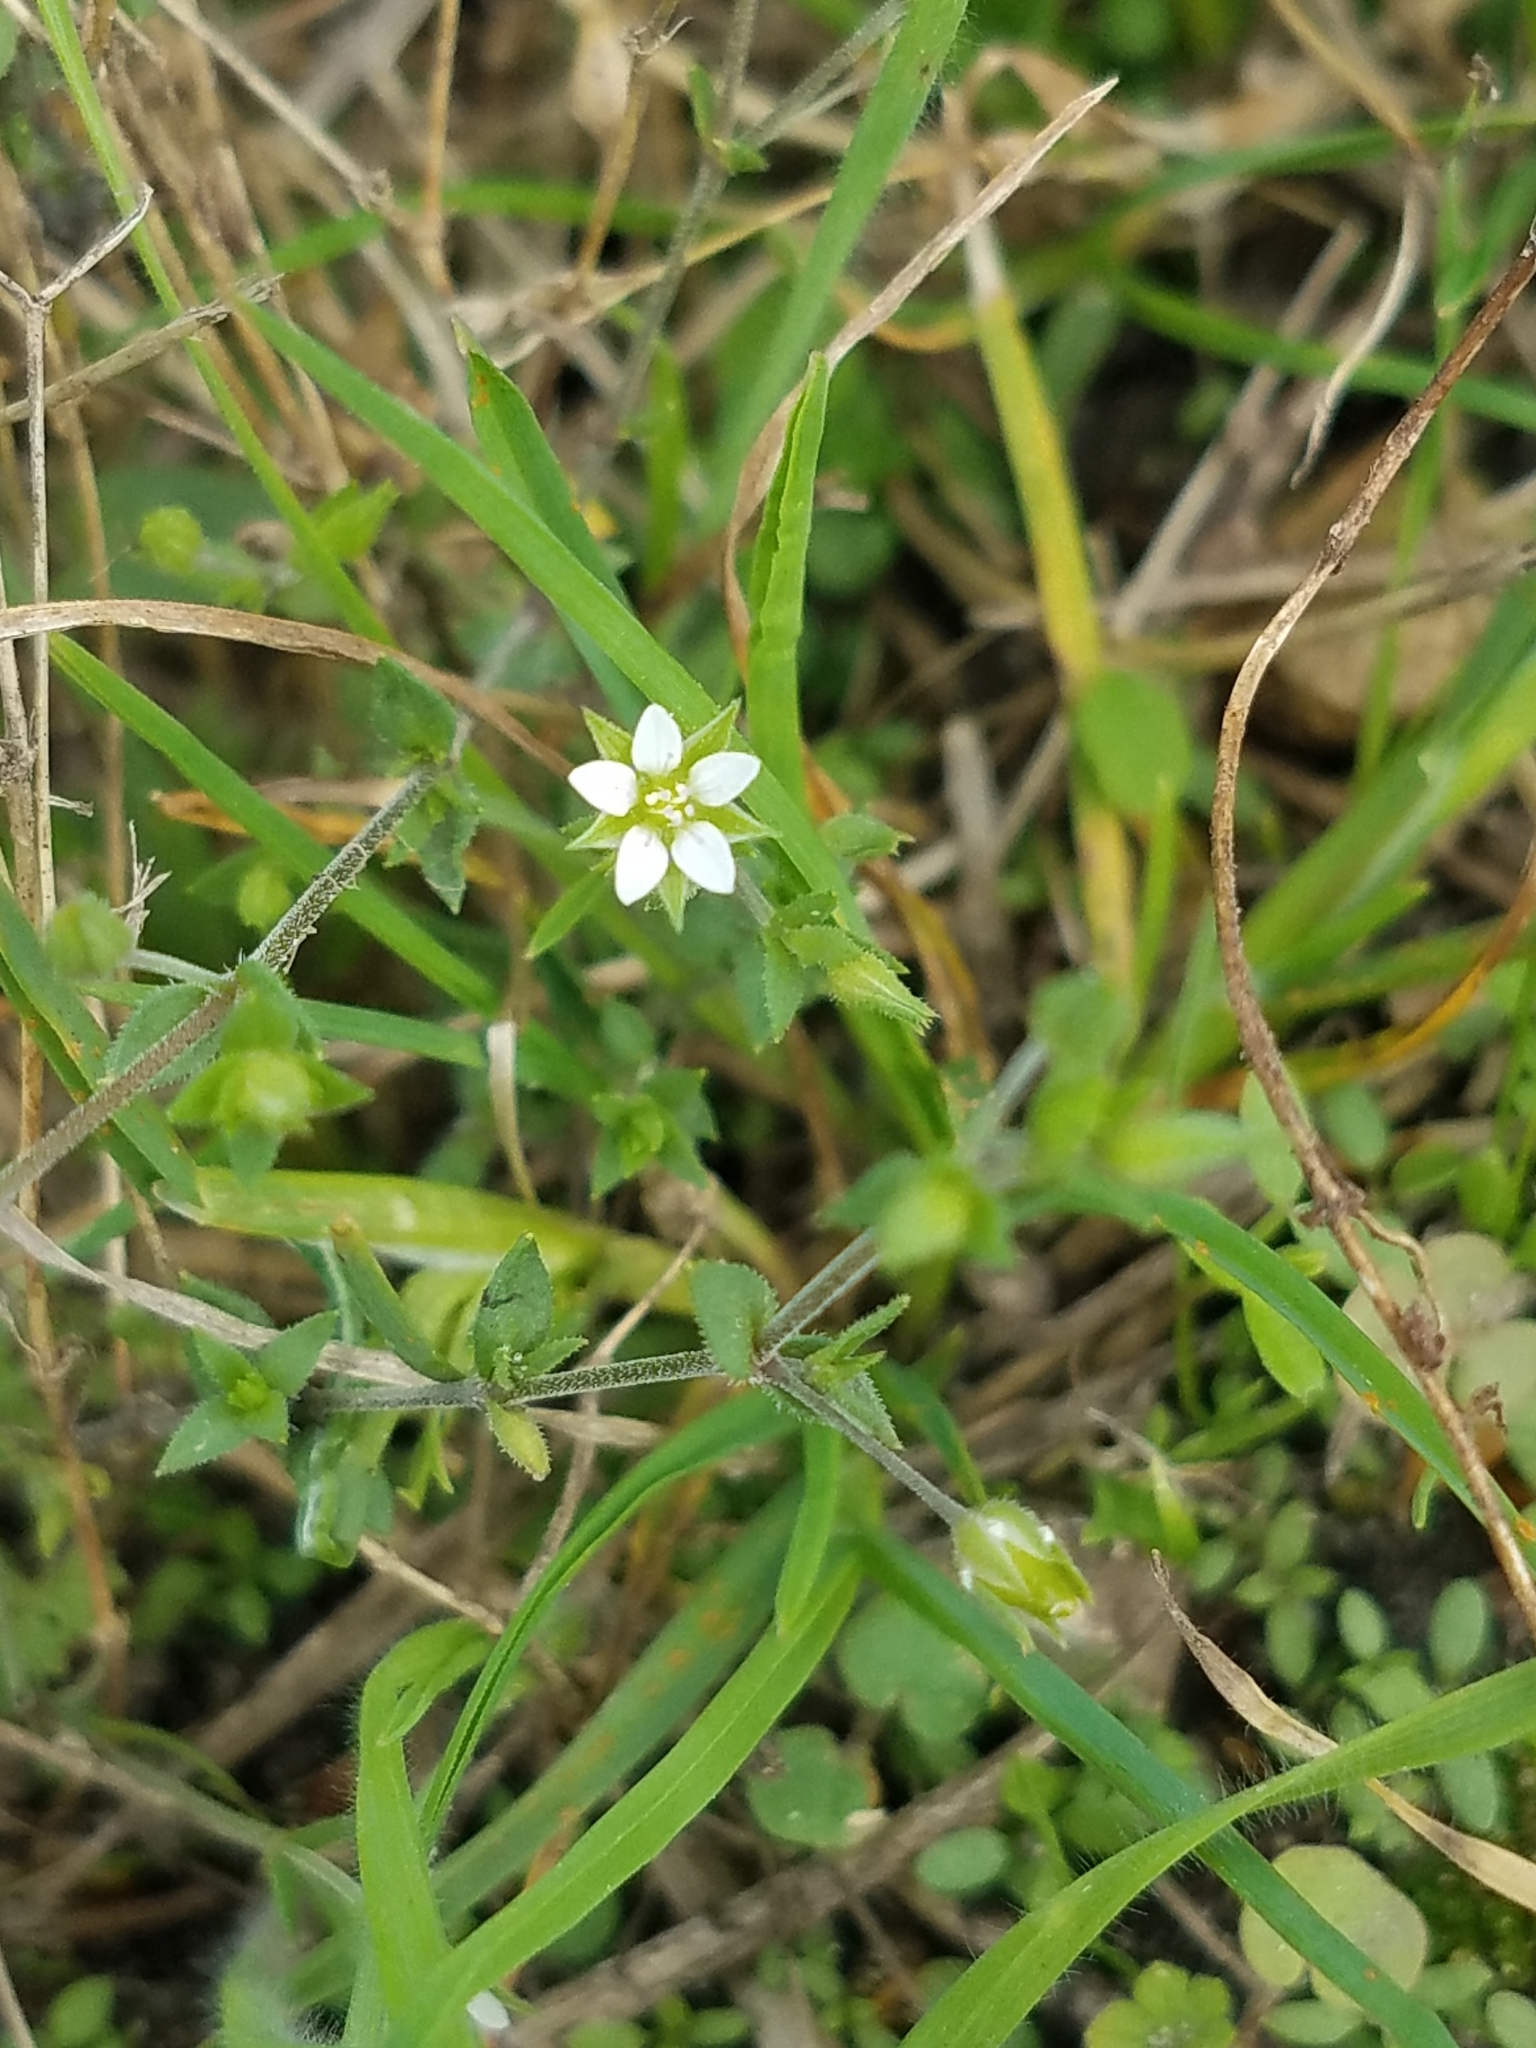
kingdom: Plantae
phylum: Tracheophyta
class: Magnoliopsida
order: Caryophyllales
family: Caryophyllaceae
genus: Arenaria
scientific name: Arenaria serpyllifolia
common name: Thyme-leaved sandwort
